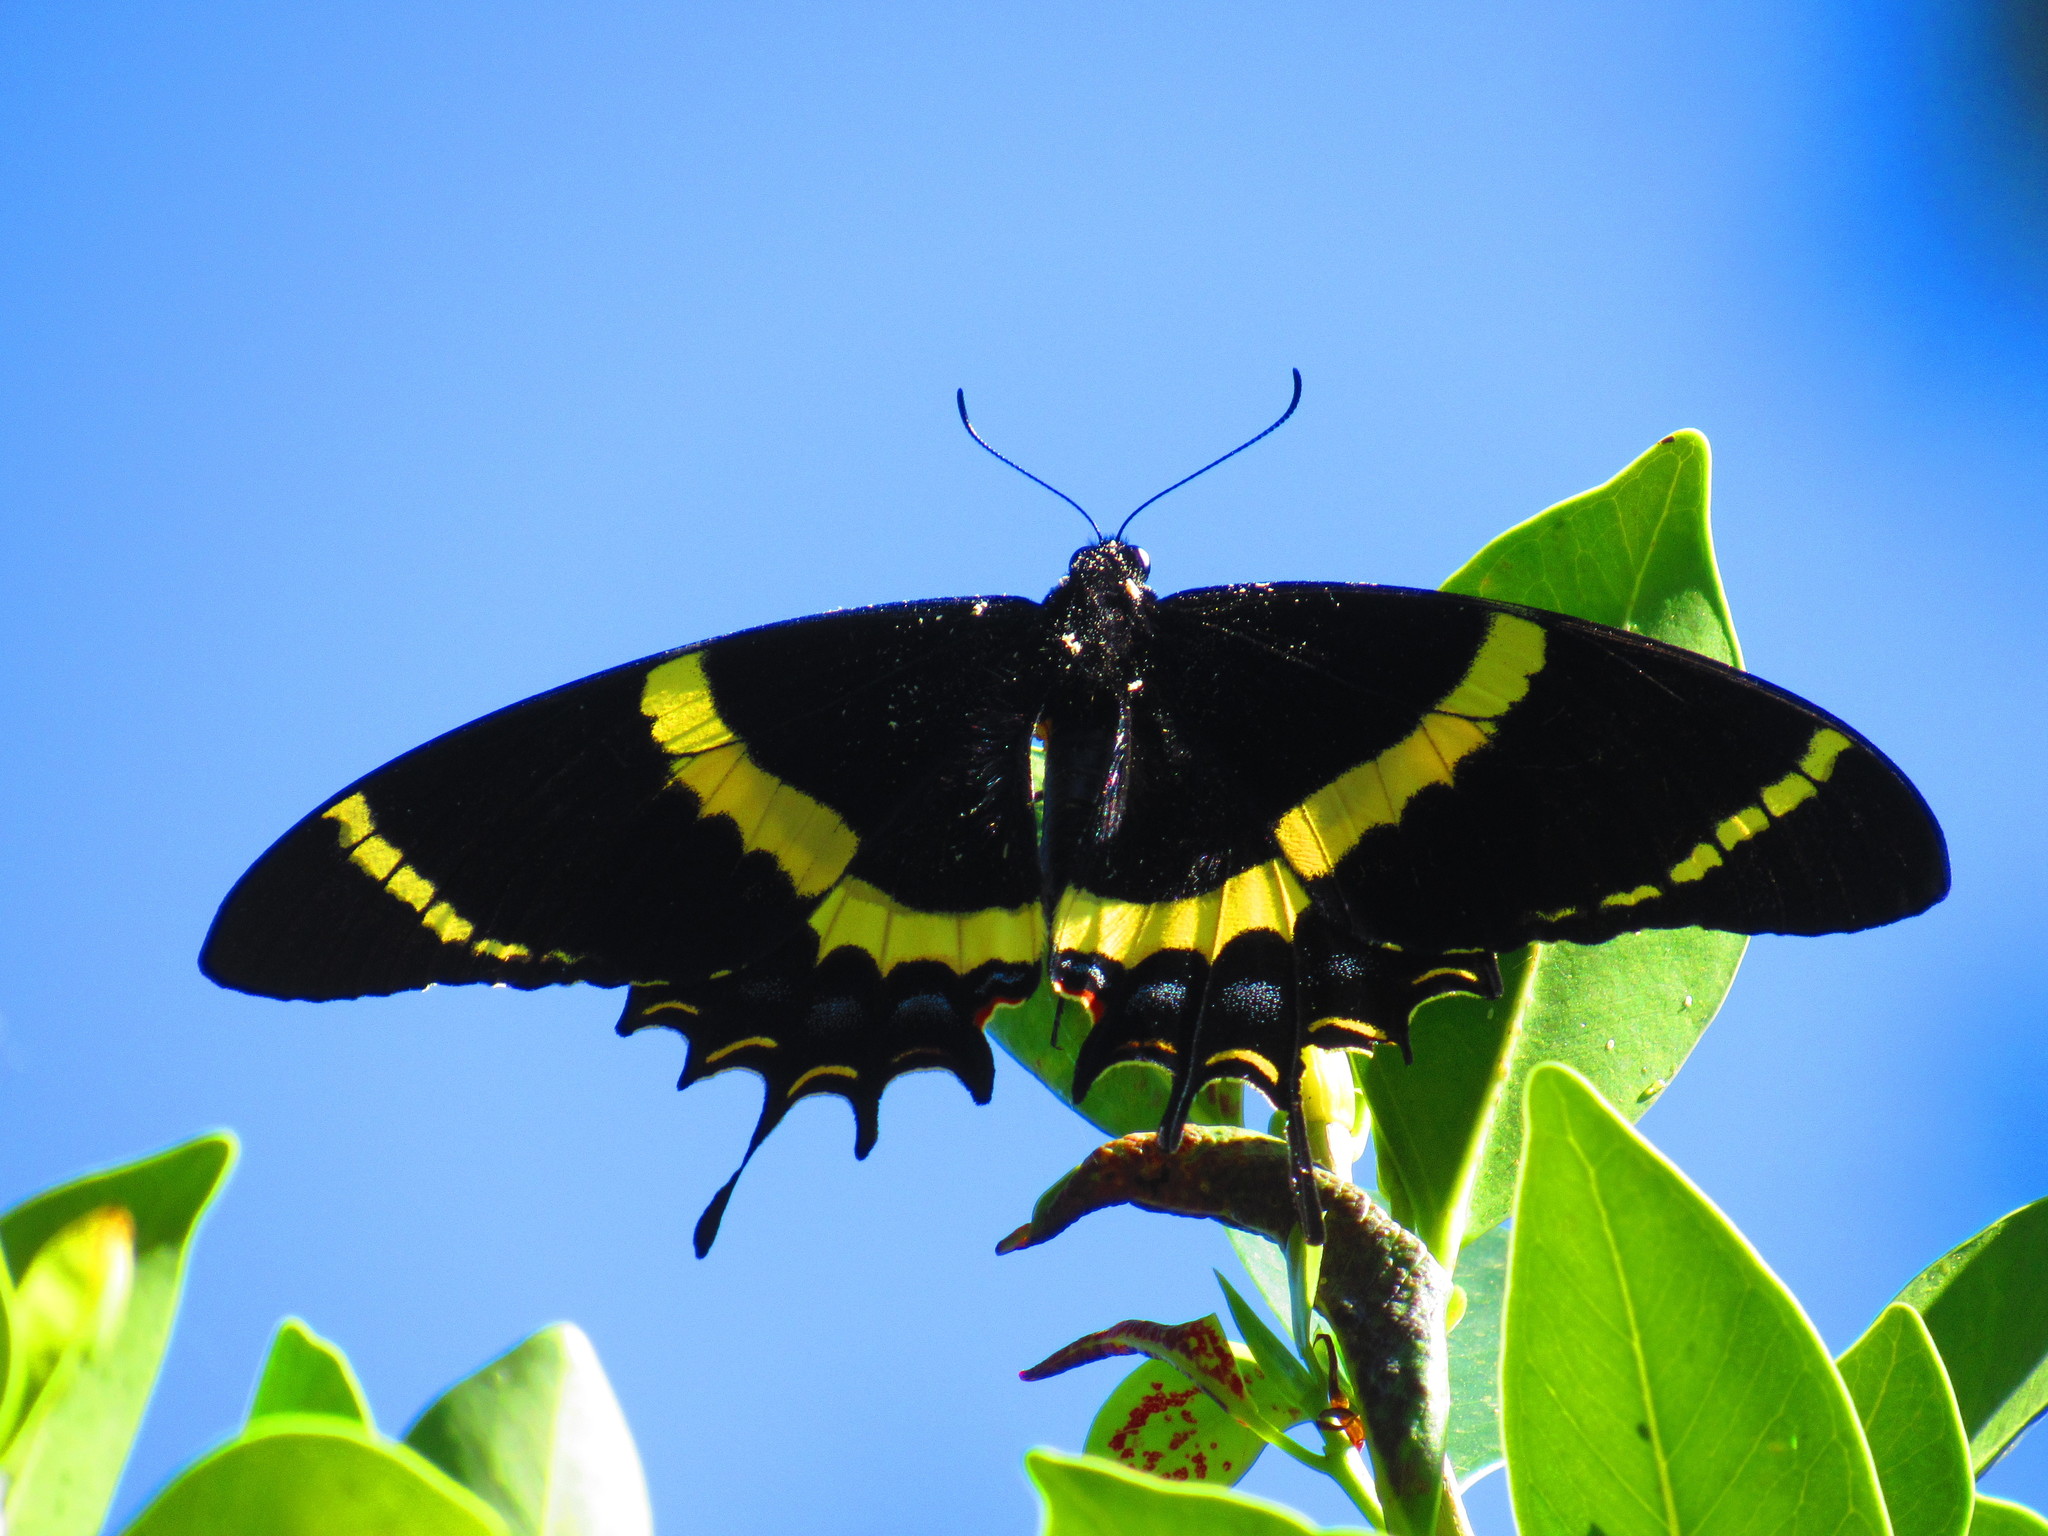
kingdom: Animalia
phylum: Arthropoda
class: Insecta
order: Lepidoptera
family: Papilionidae
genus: Papilio
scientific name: Papilio garamas
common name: Magnificent swallowtail
